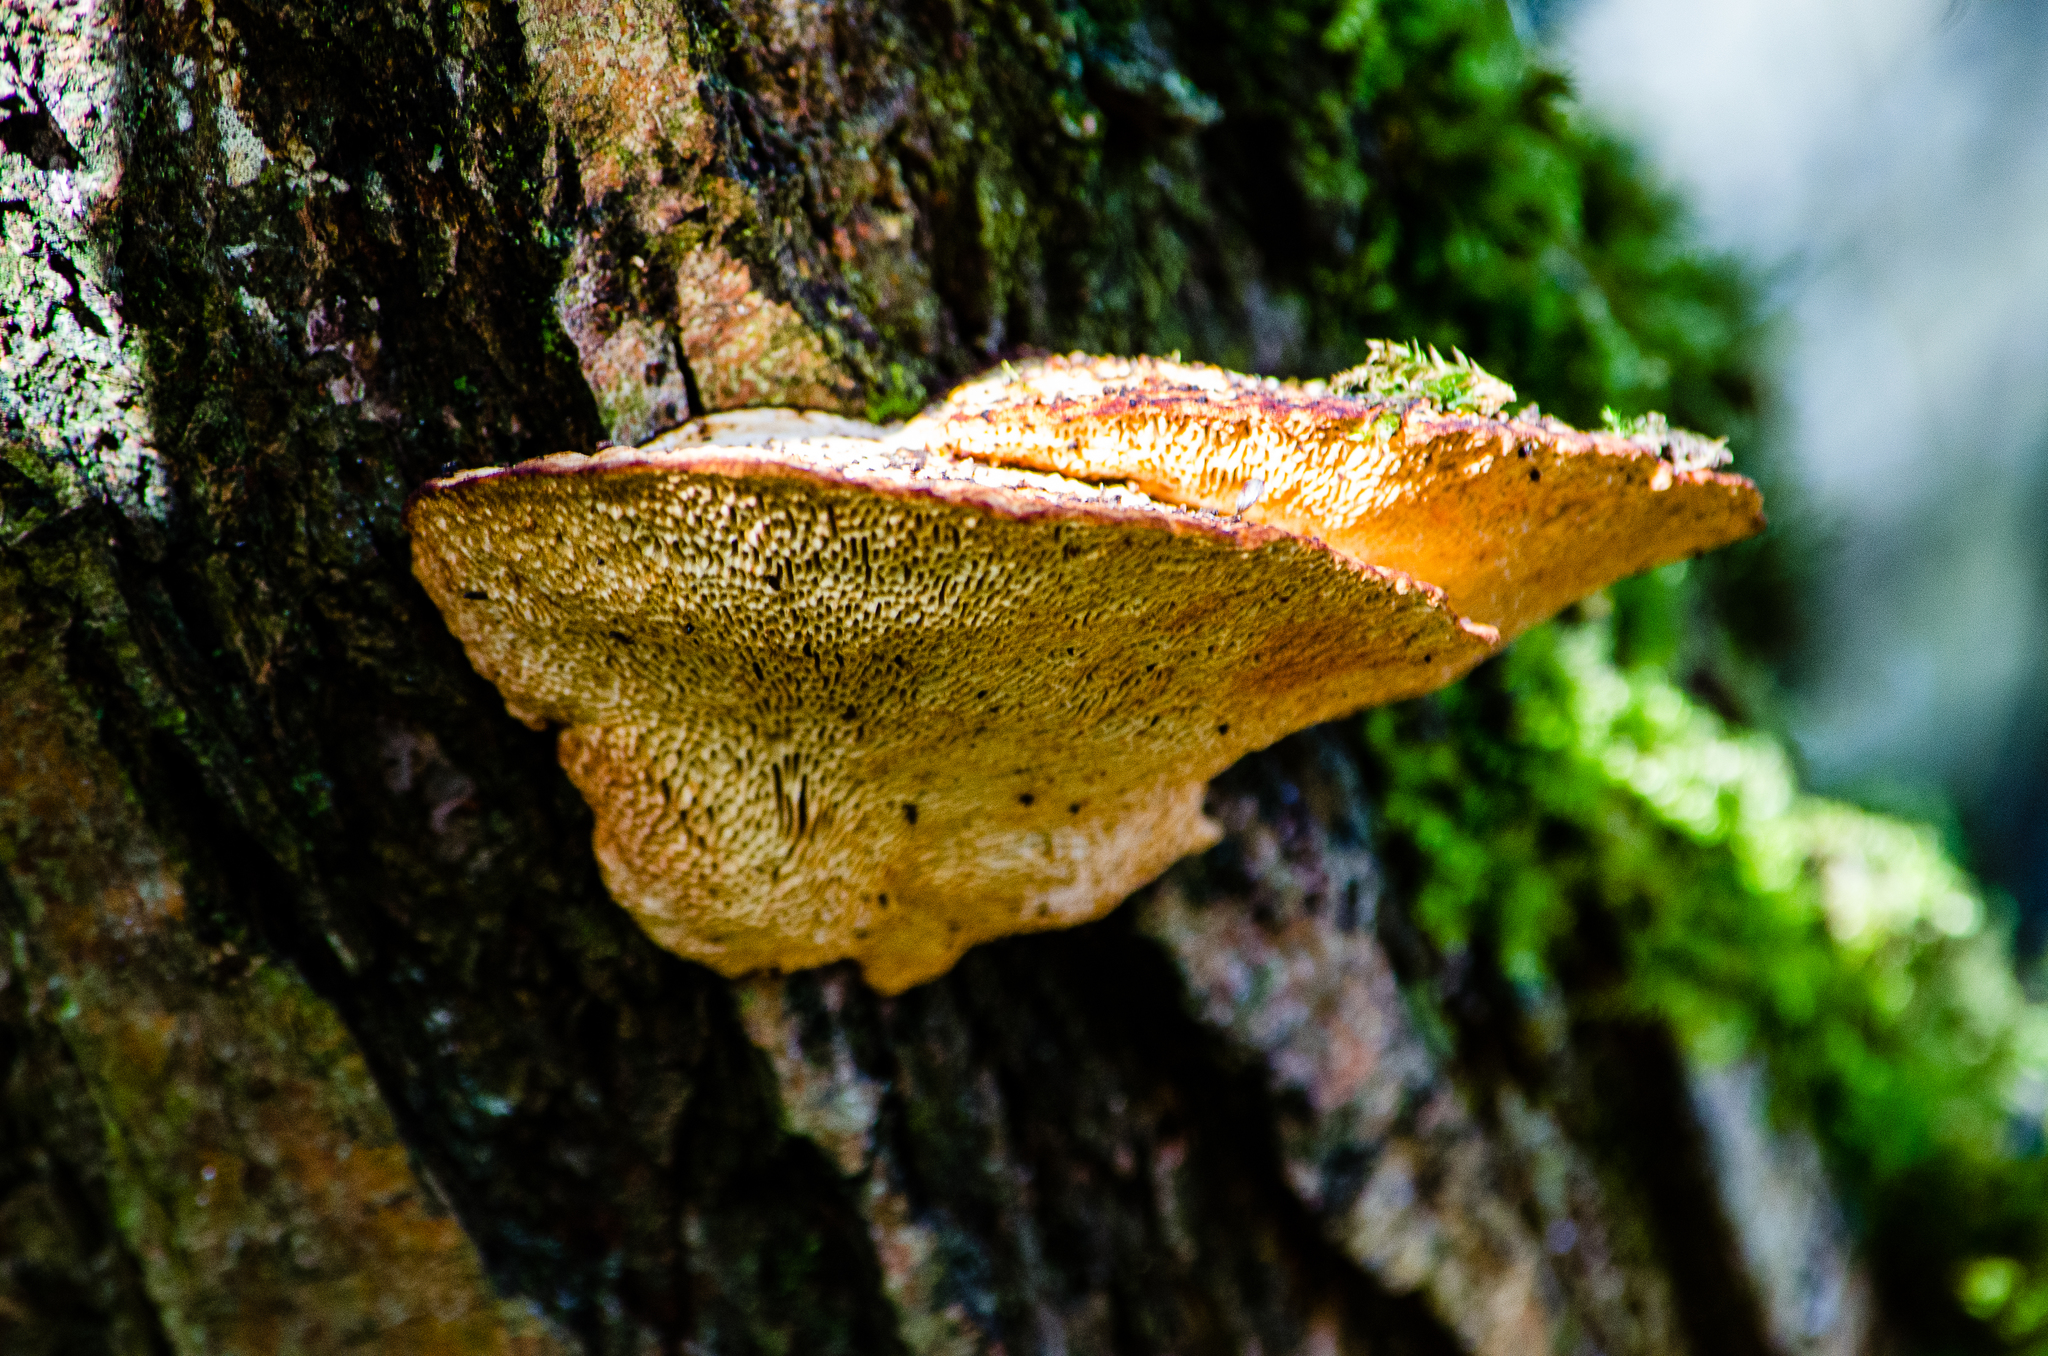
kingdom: Fungi
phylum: Basidiomycota
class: Agaricomycetes
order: Polyporales
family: Polyporaceae
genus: Daedaleopsis
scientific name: Daedaleopsis confragosa
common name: Blushing bracket
